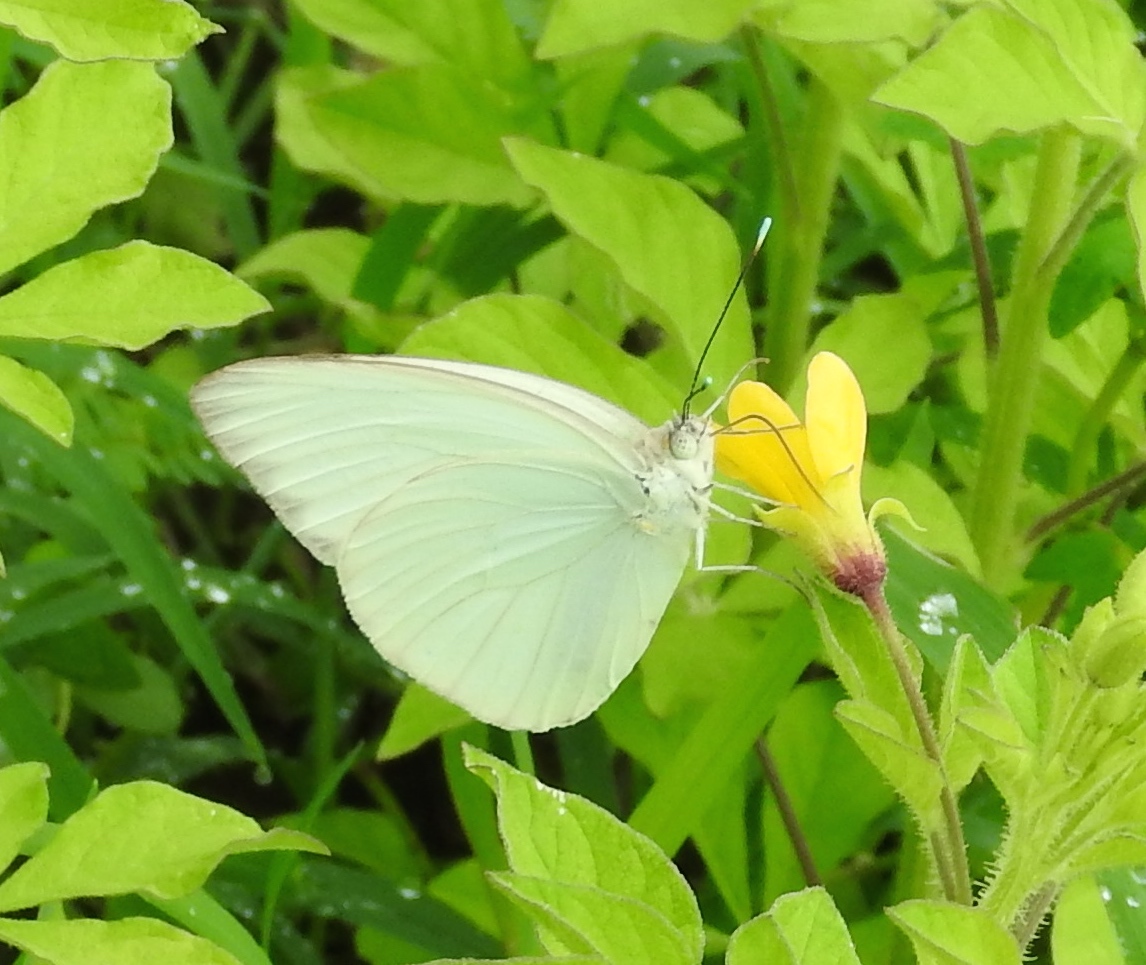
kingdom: Animalia
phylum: Arthropoda
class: Insecta
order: Lepidoptera
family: Pieridae
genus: Ascia
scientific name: Ascia monuste
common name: Great southern white
